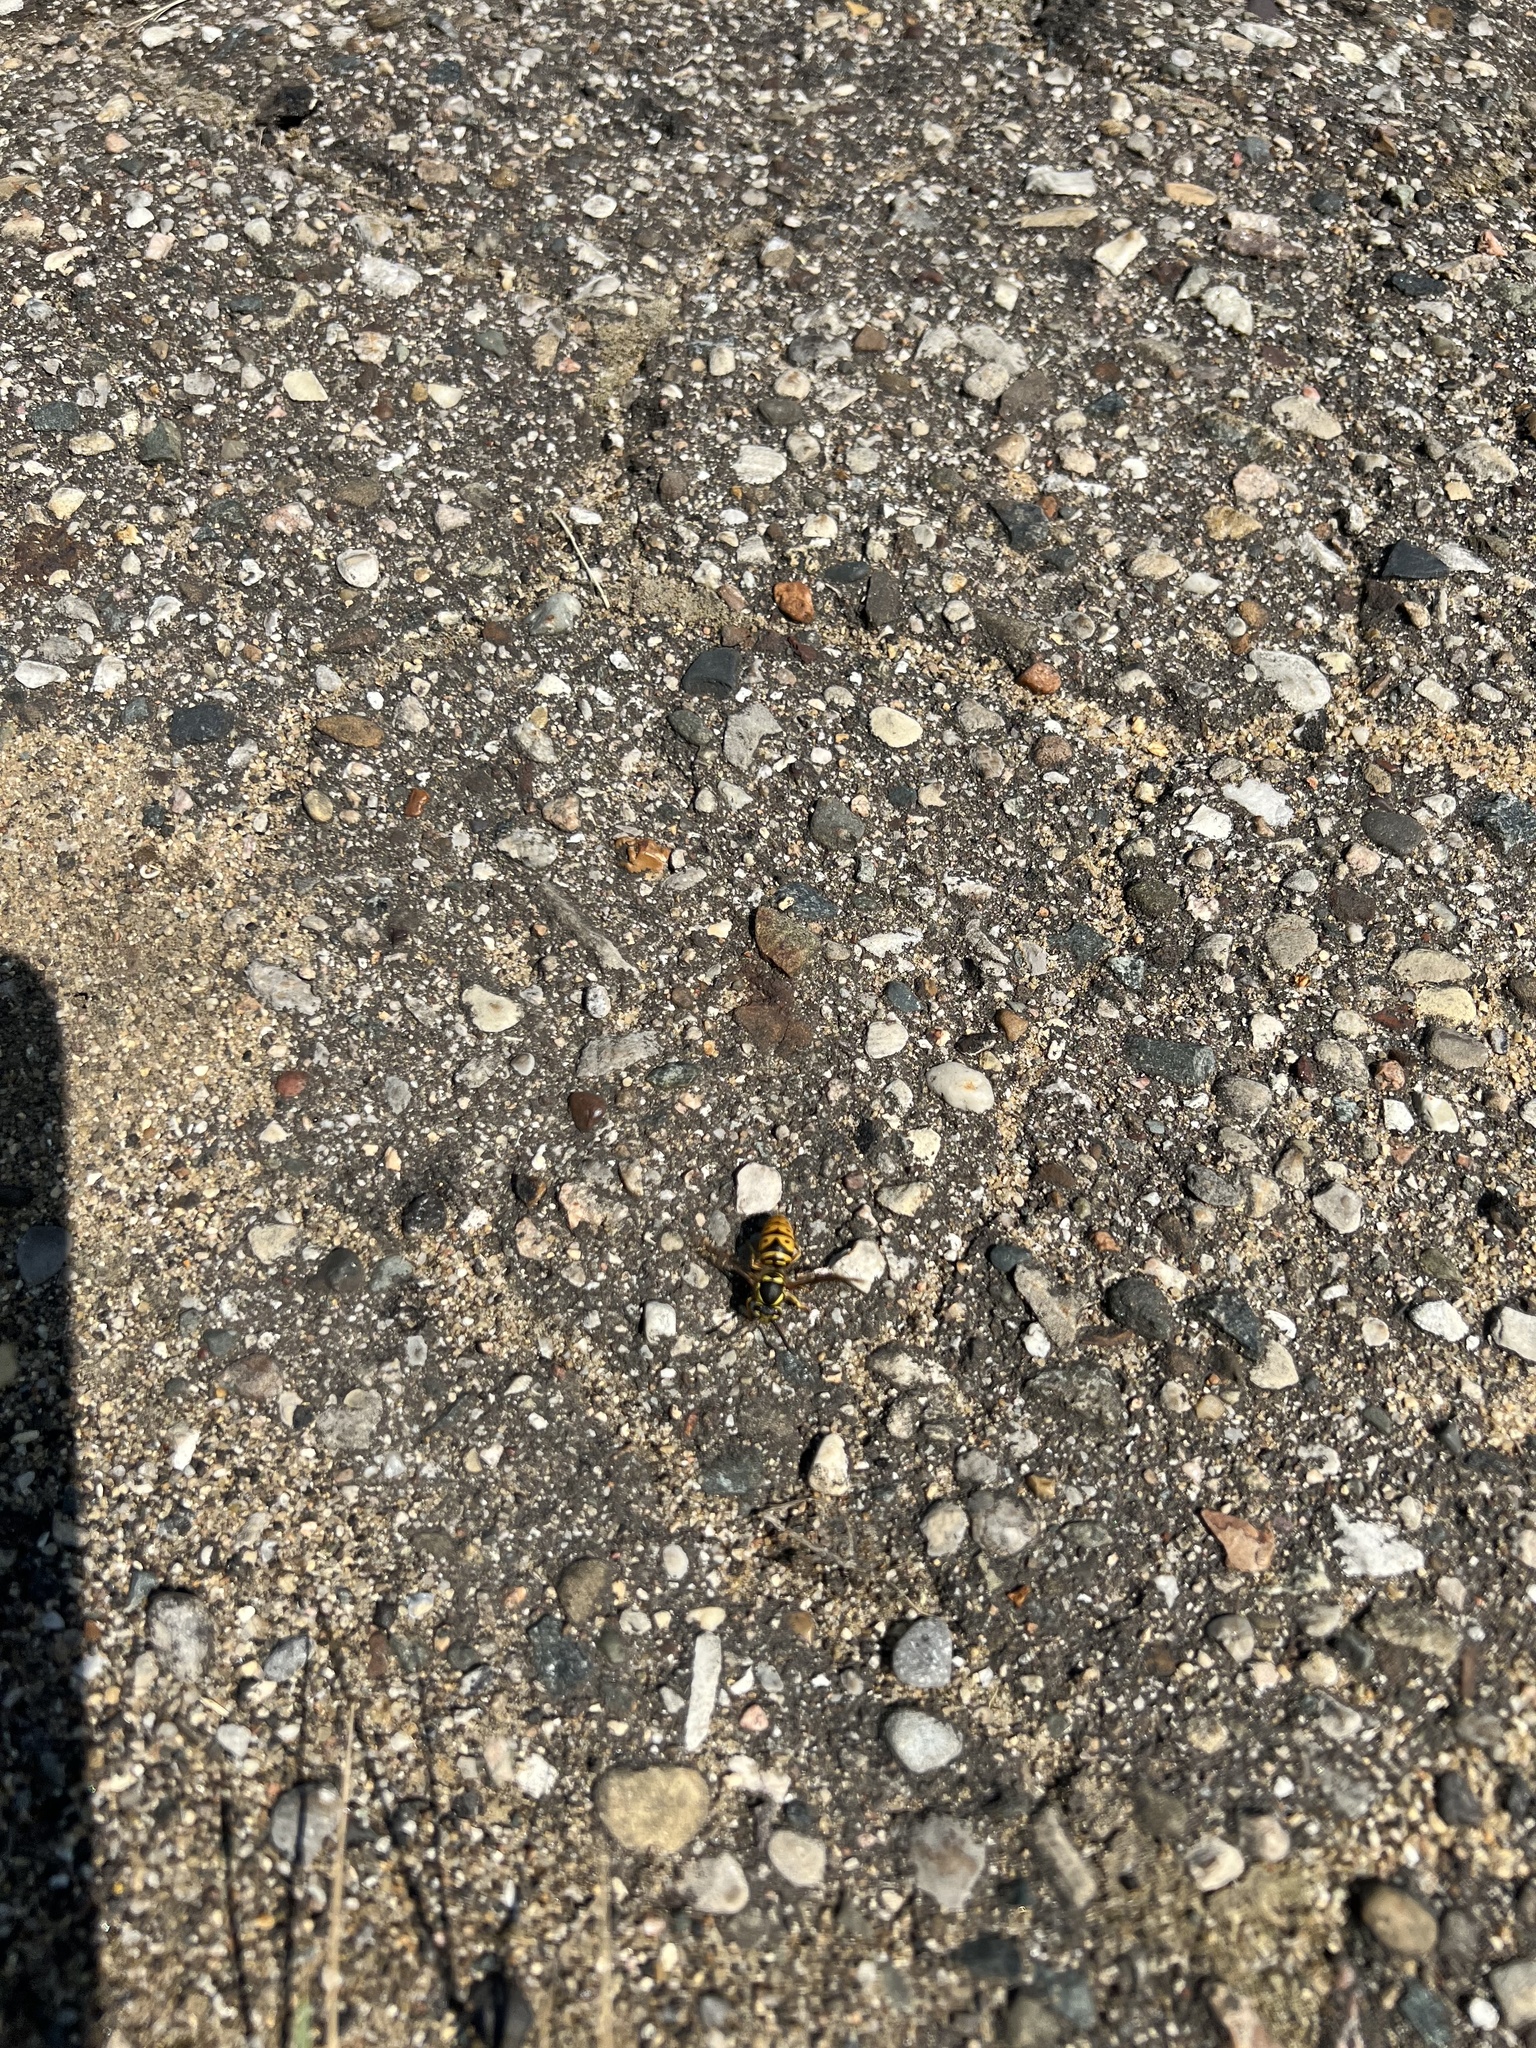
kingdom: Animalia
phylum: Arthropoda
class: Insecta
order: Hymenoptera
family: Vespidae
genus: Vespula
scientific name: Vespula maculifrons
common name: Eastern yellowjacket
